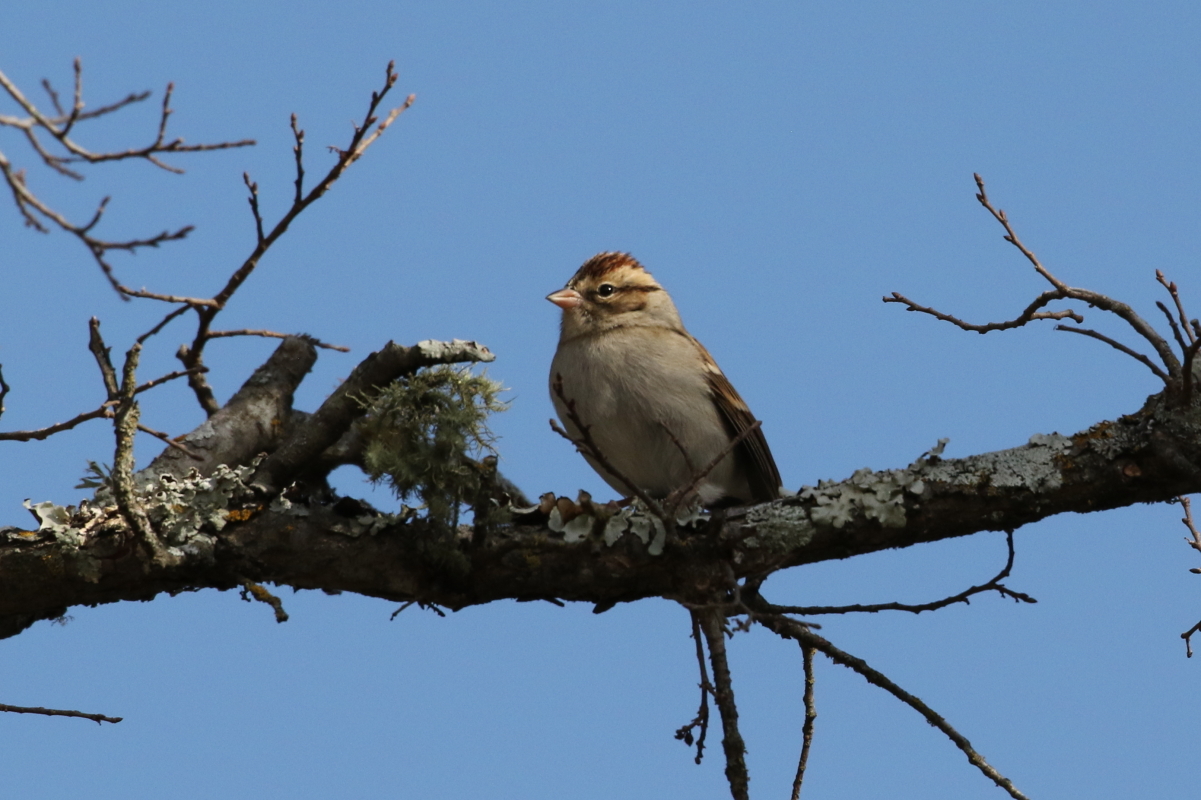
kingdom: Animalia
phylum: Chordata
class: Aves
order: Passeriformes
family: Passerellidae
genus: Spizella
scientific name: Spizella passerina
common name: Chipping sparrow
